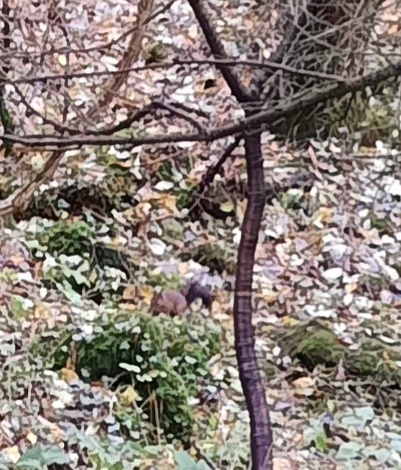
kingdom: Animalia
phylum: Chordata
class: Mammalia
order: Rodentia
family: Sciuridae
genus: Sciurus
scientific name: Sciurus vulgaris
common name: Eurasian red squirrel
